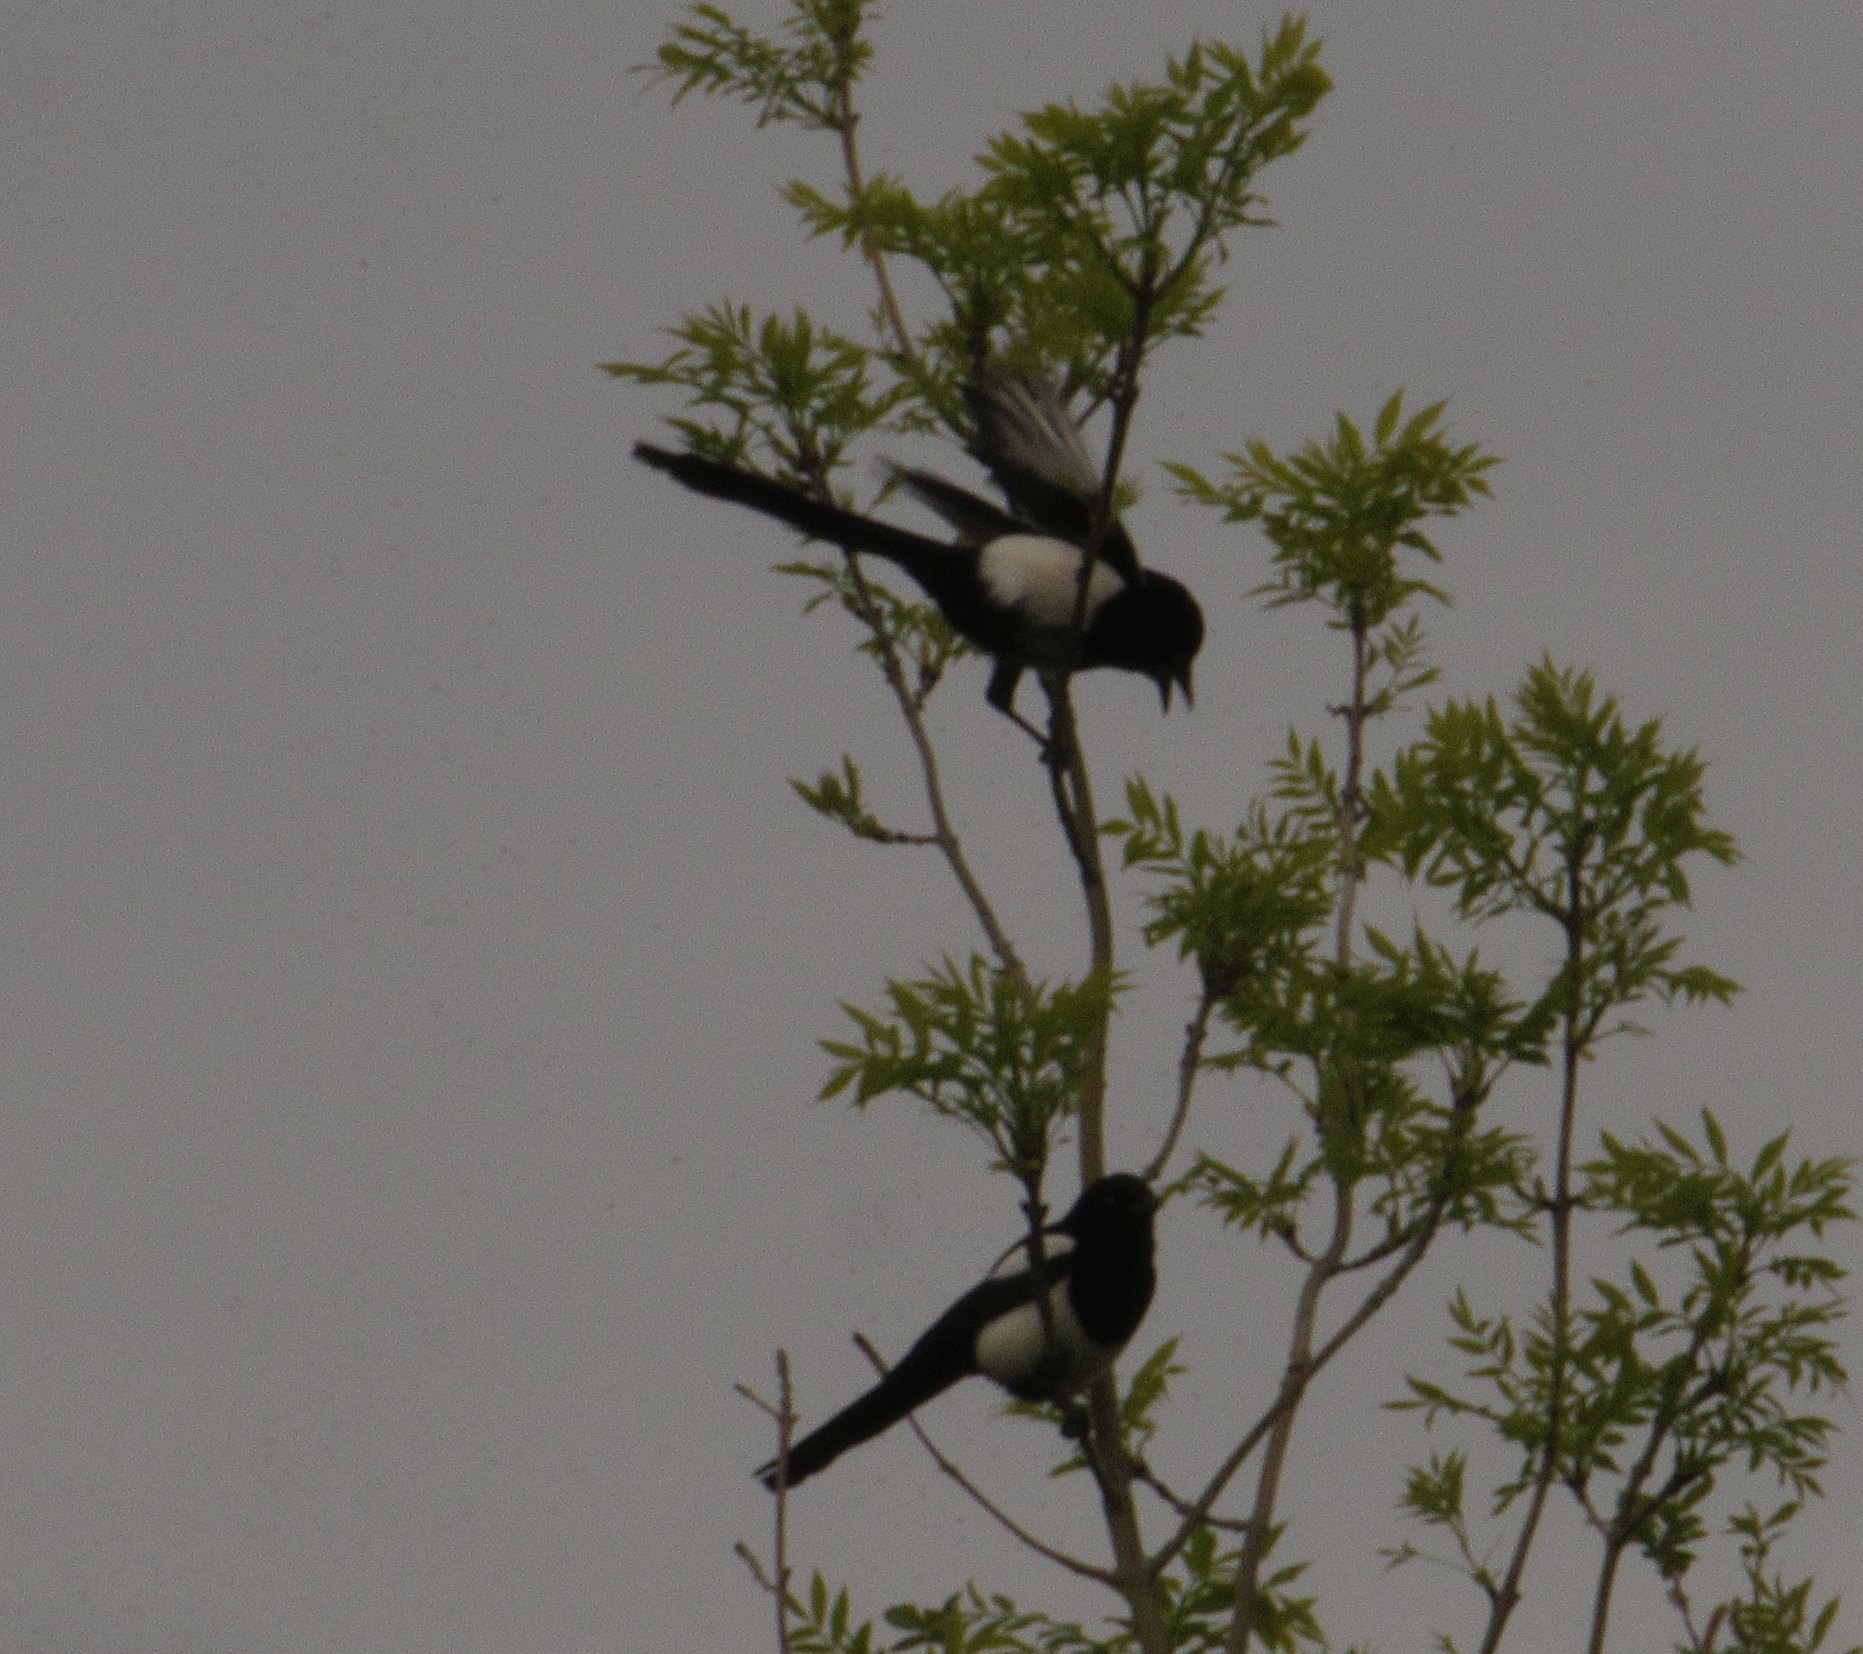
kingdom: Animalia
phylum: Chordata
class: Aves
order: Passeriformes
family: Corvidae
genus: Pica
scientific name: Pica pica
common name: Eurasian magpie
